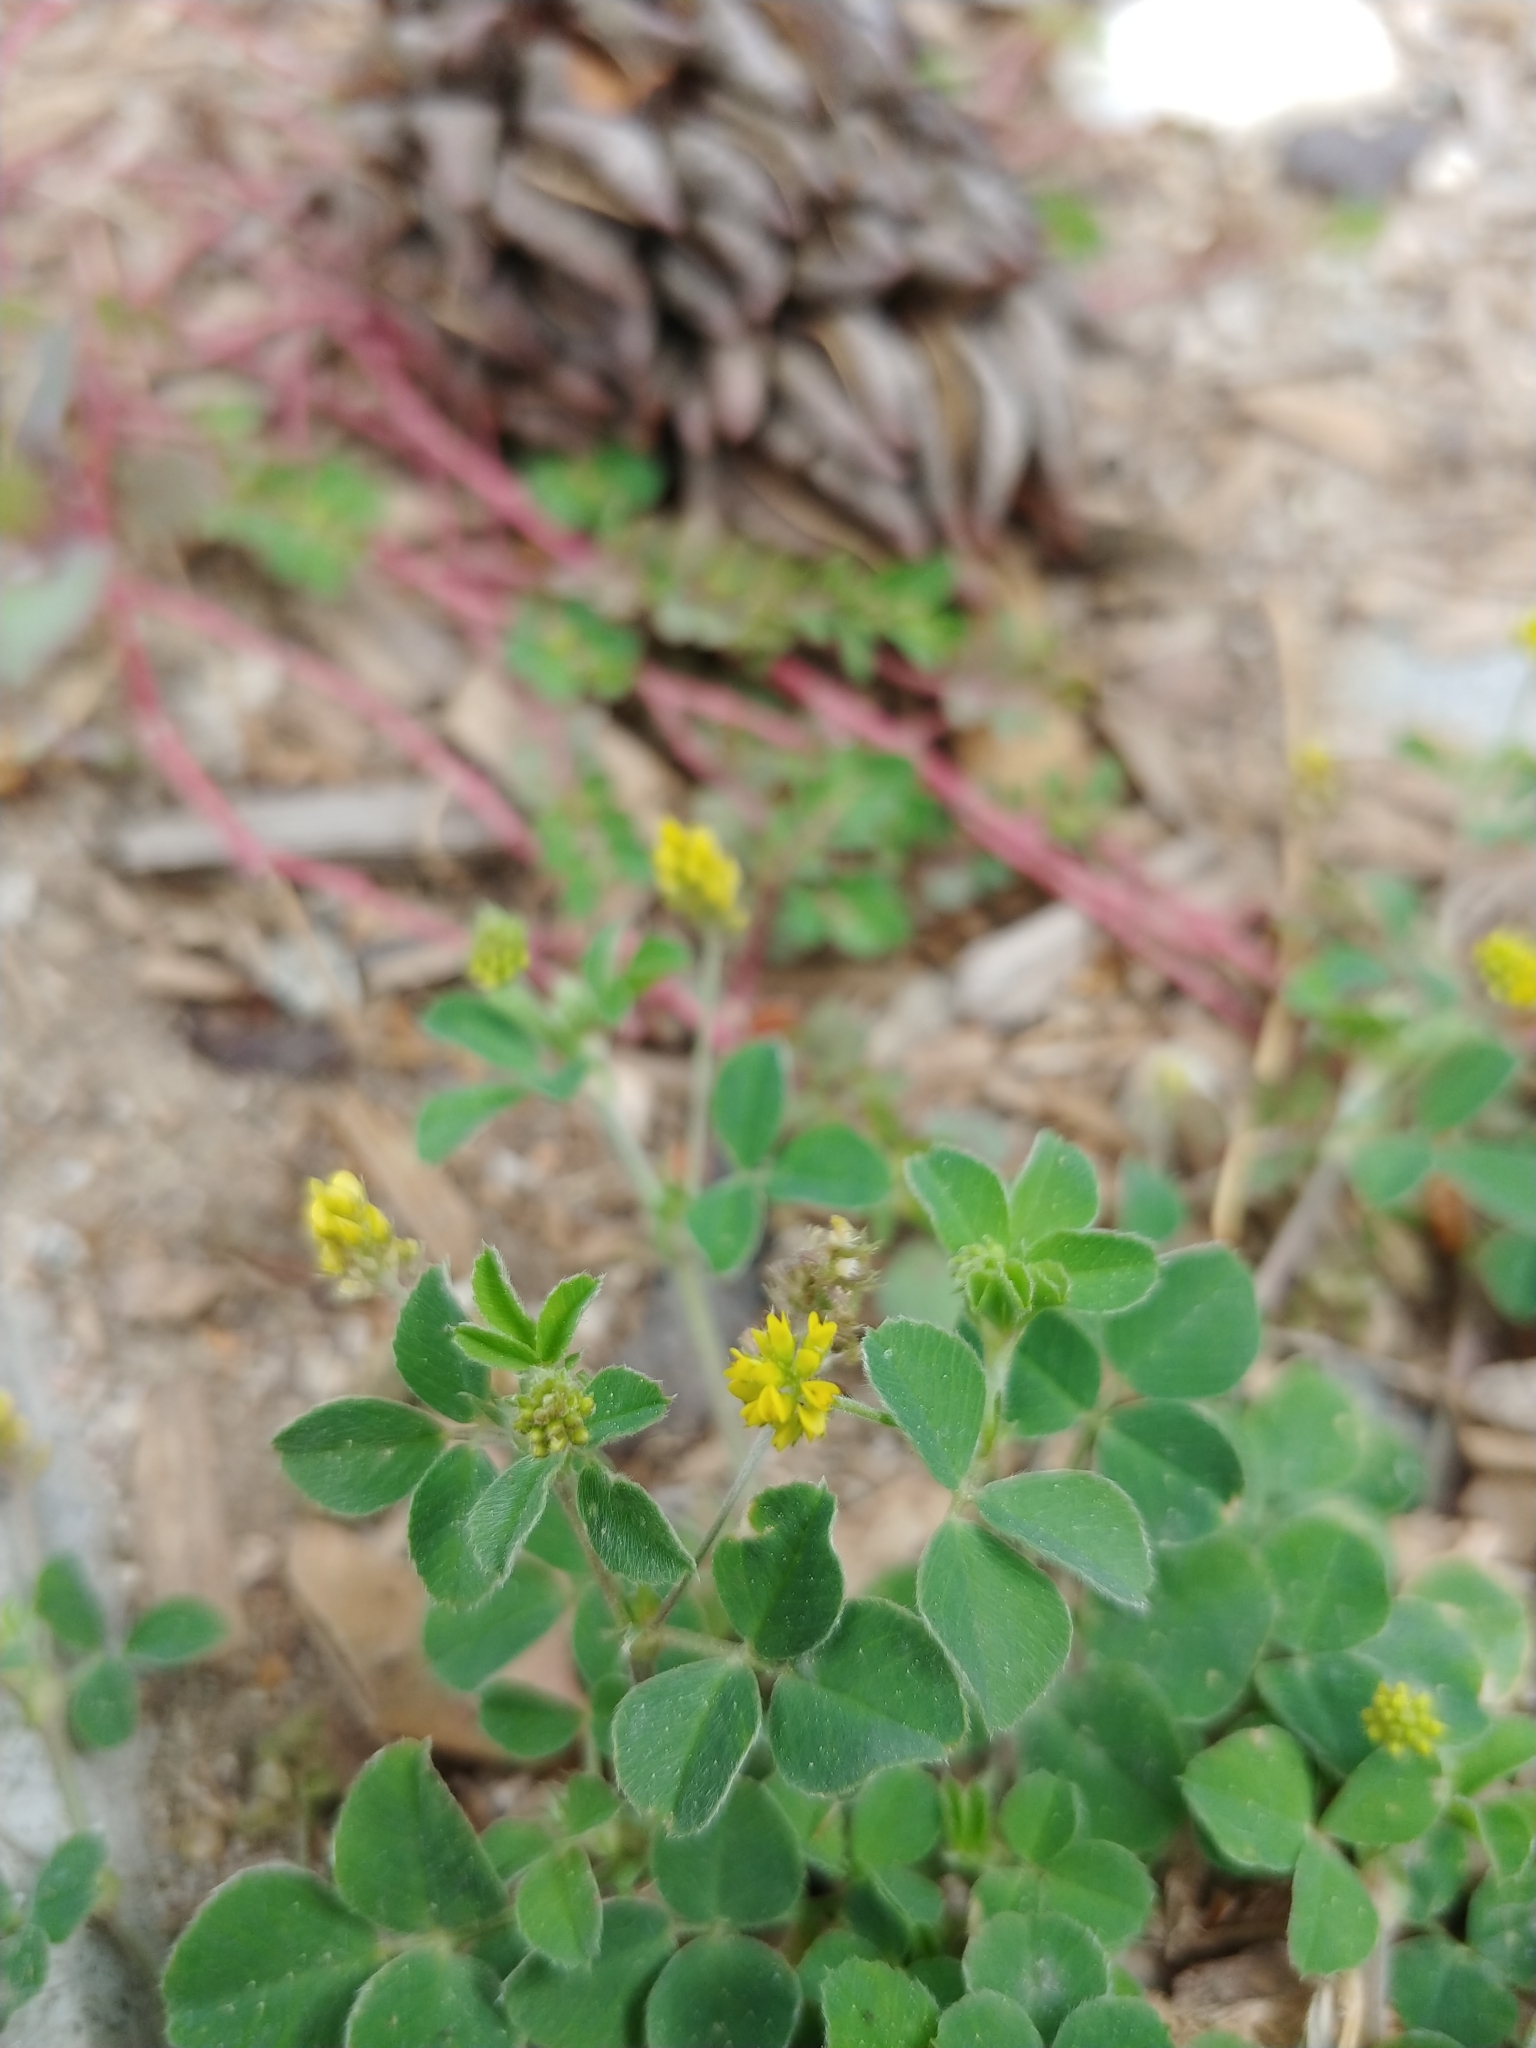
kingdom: Plantae
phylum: Tracheophyta
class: Magnoliopsida
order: Fabales
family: Fabaceae
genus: Medicago
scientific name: Medicago lupulina
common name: Black medick
